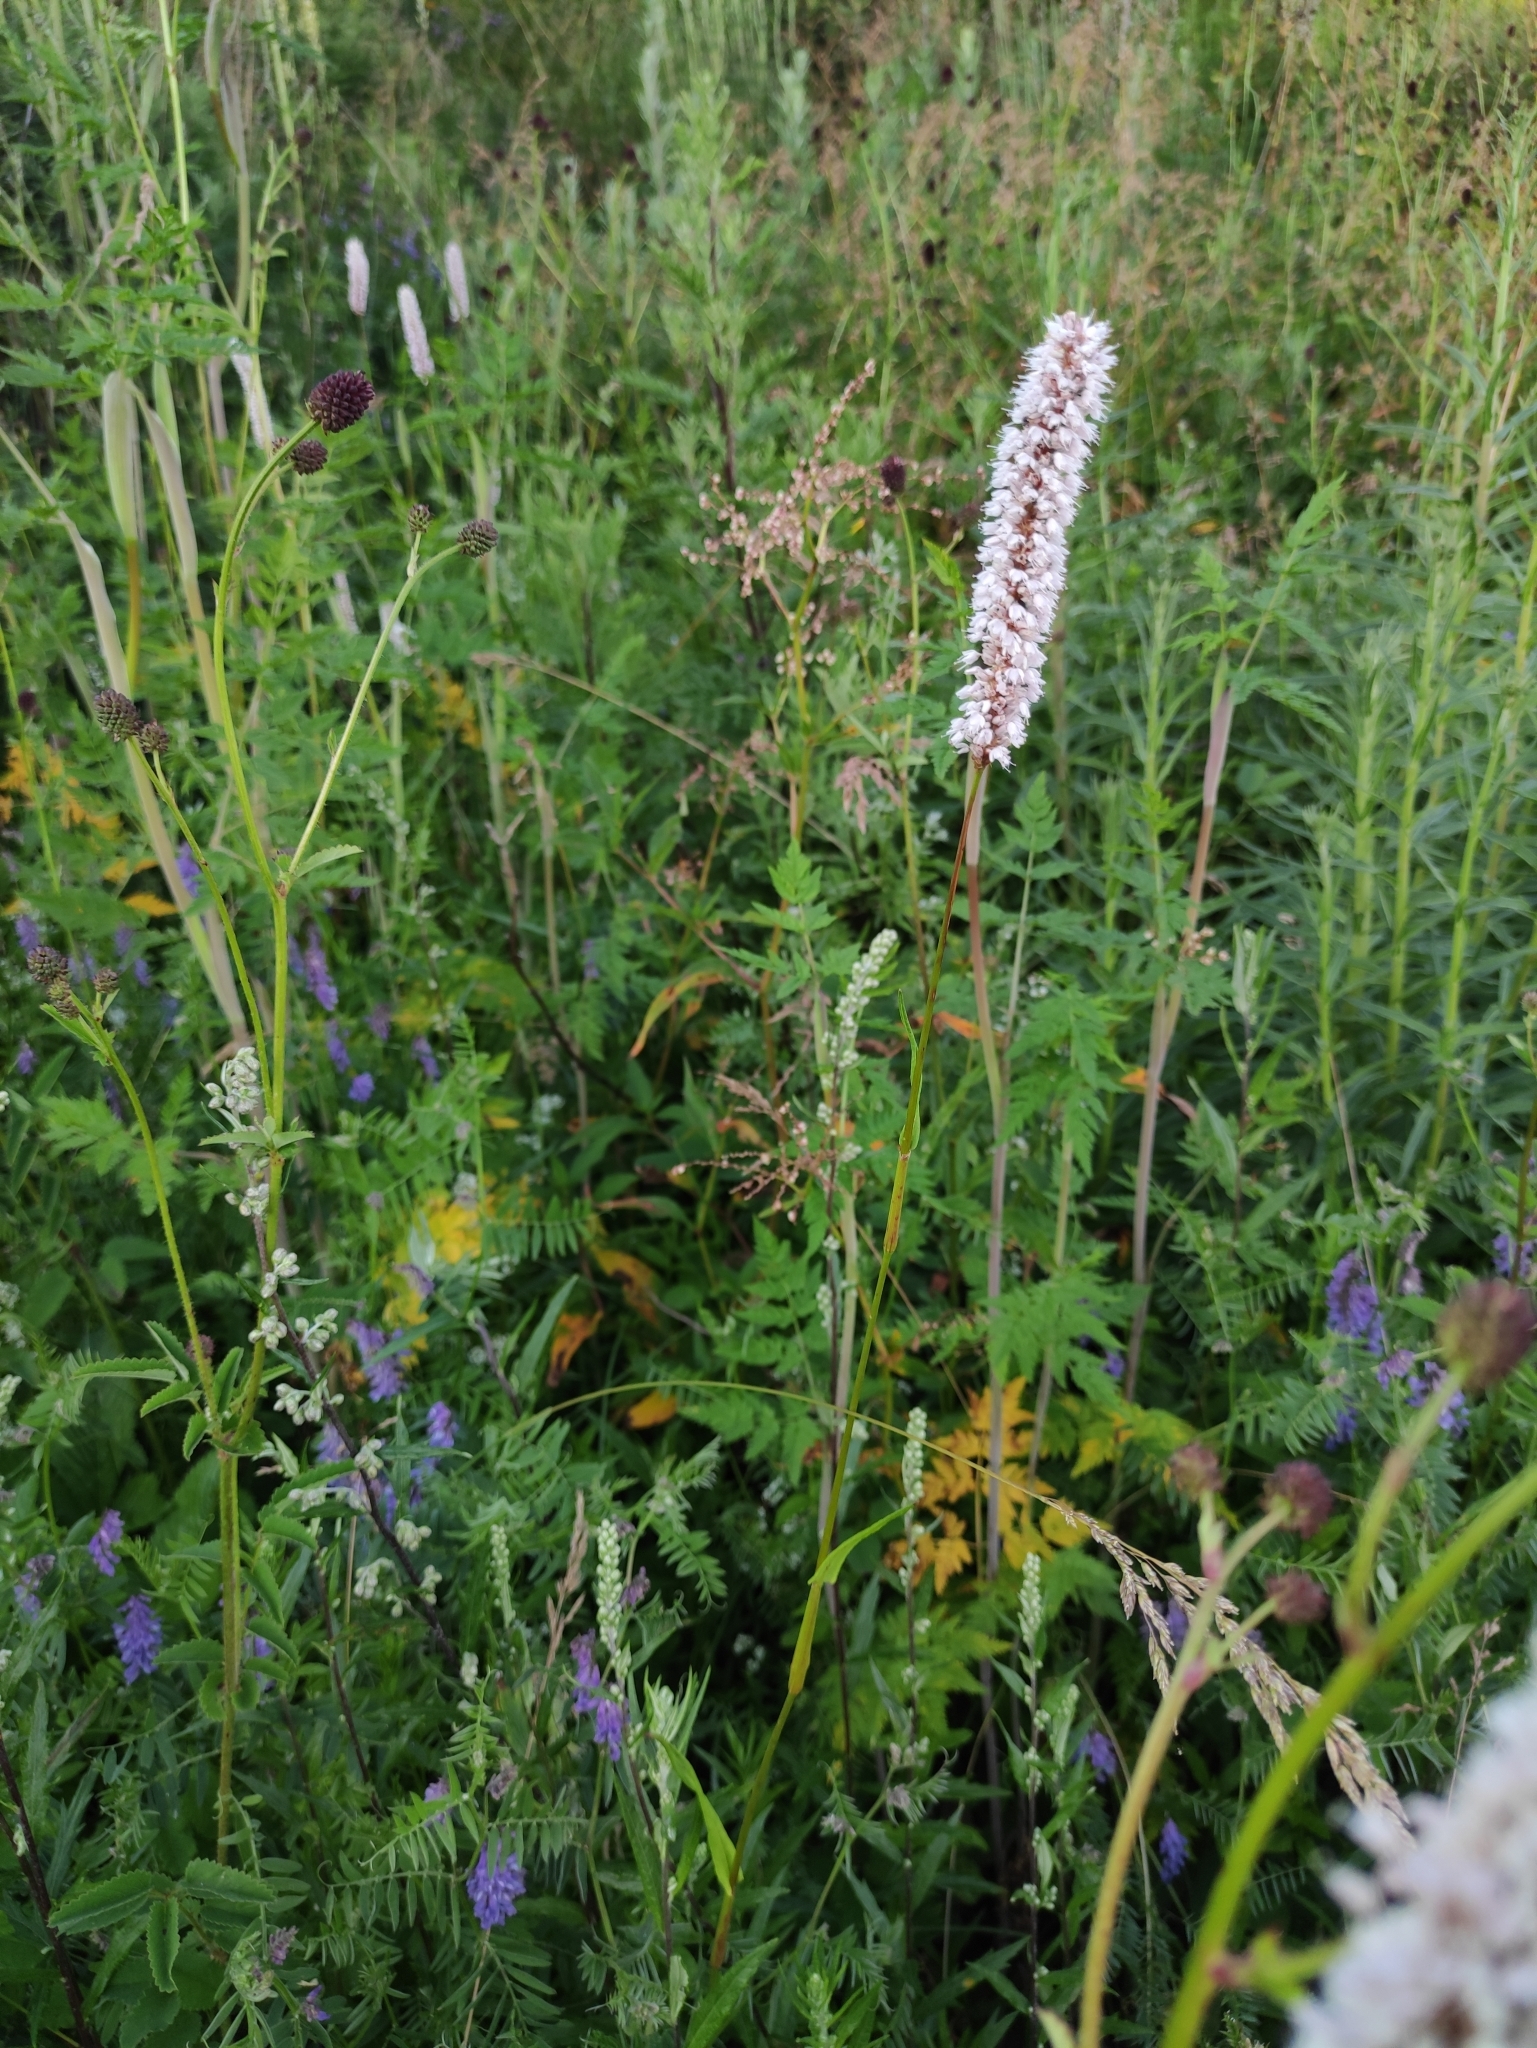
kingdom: Plantae
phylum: Tracheophyta
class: Magnoliopsida
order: Caryophyllales
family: Polygonaceae
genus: Bistorta
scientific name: Bistorta officinalis
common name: Common bistort
